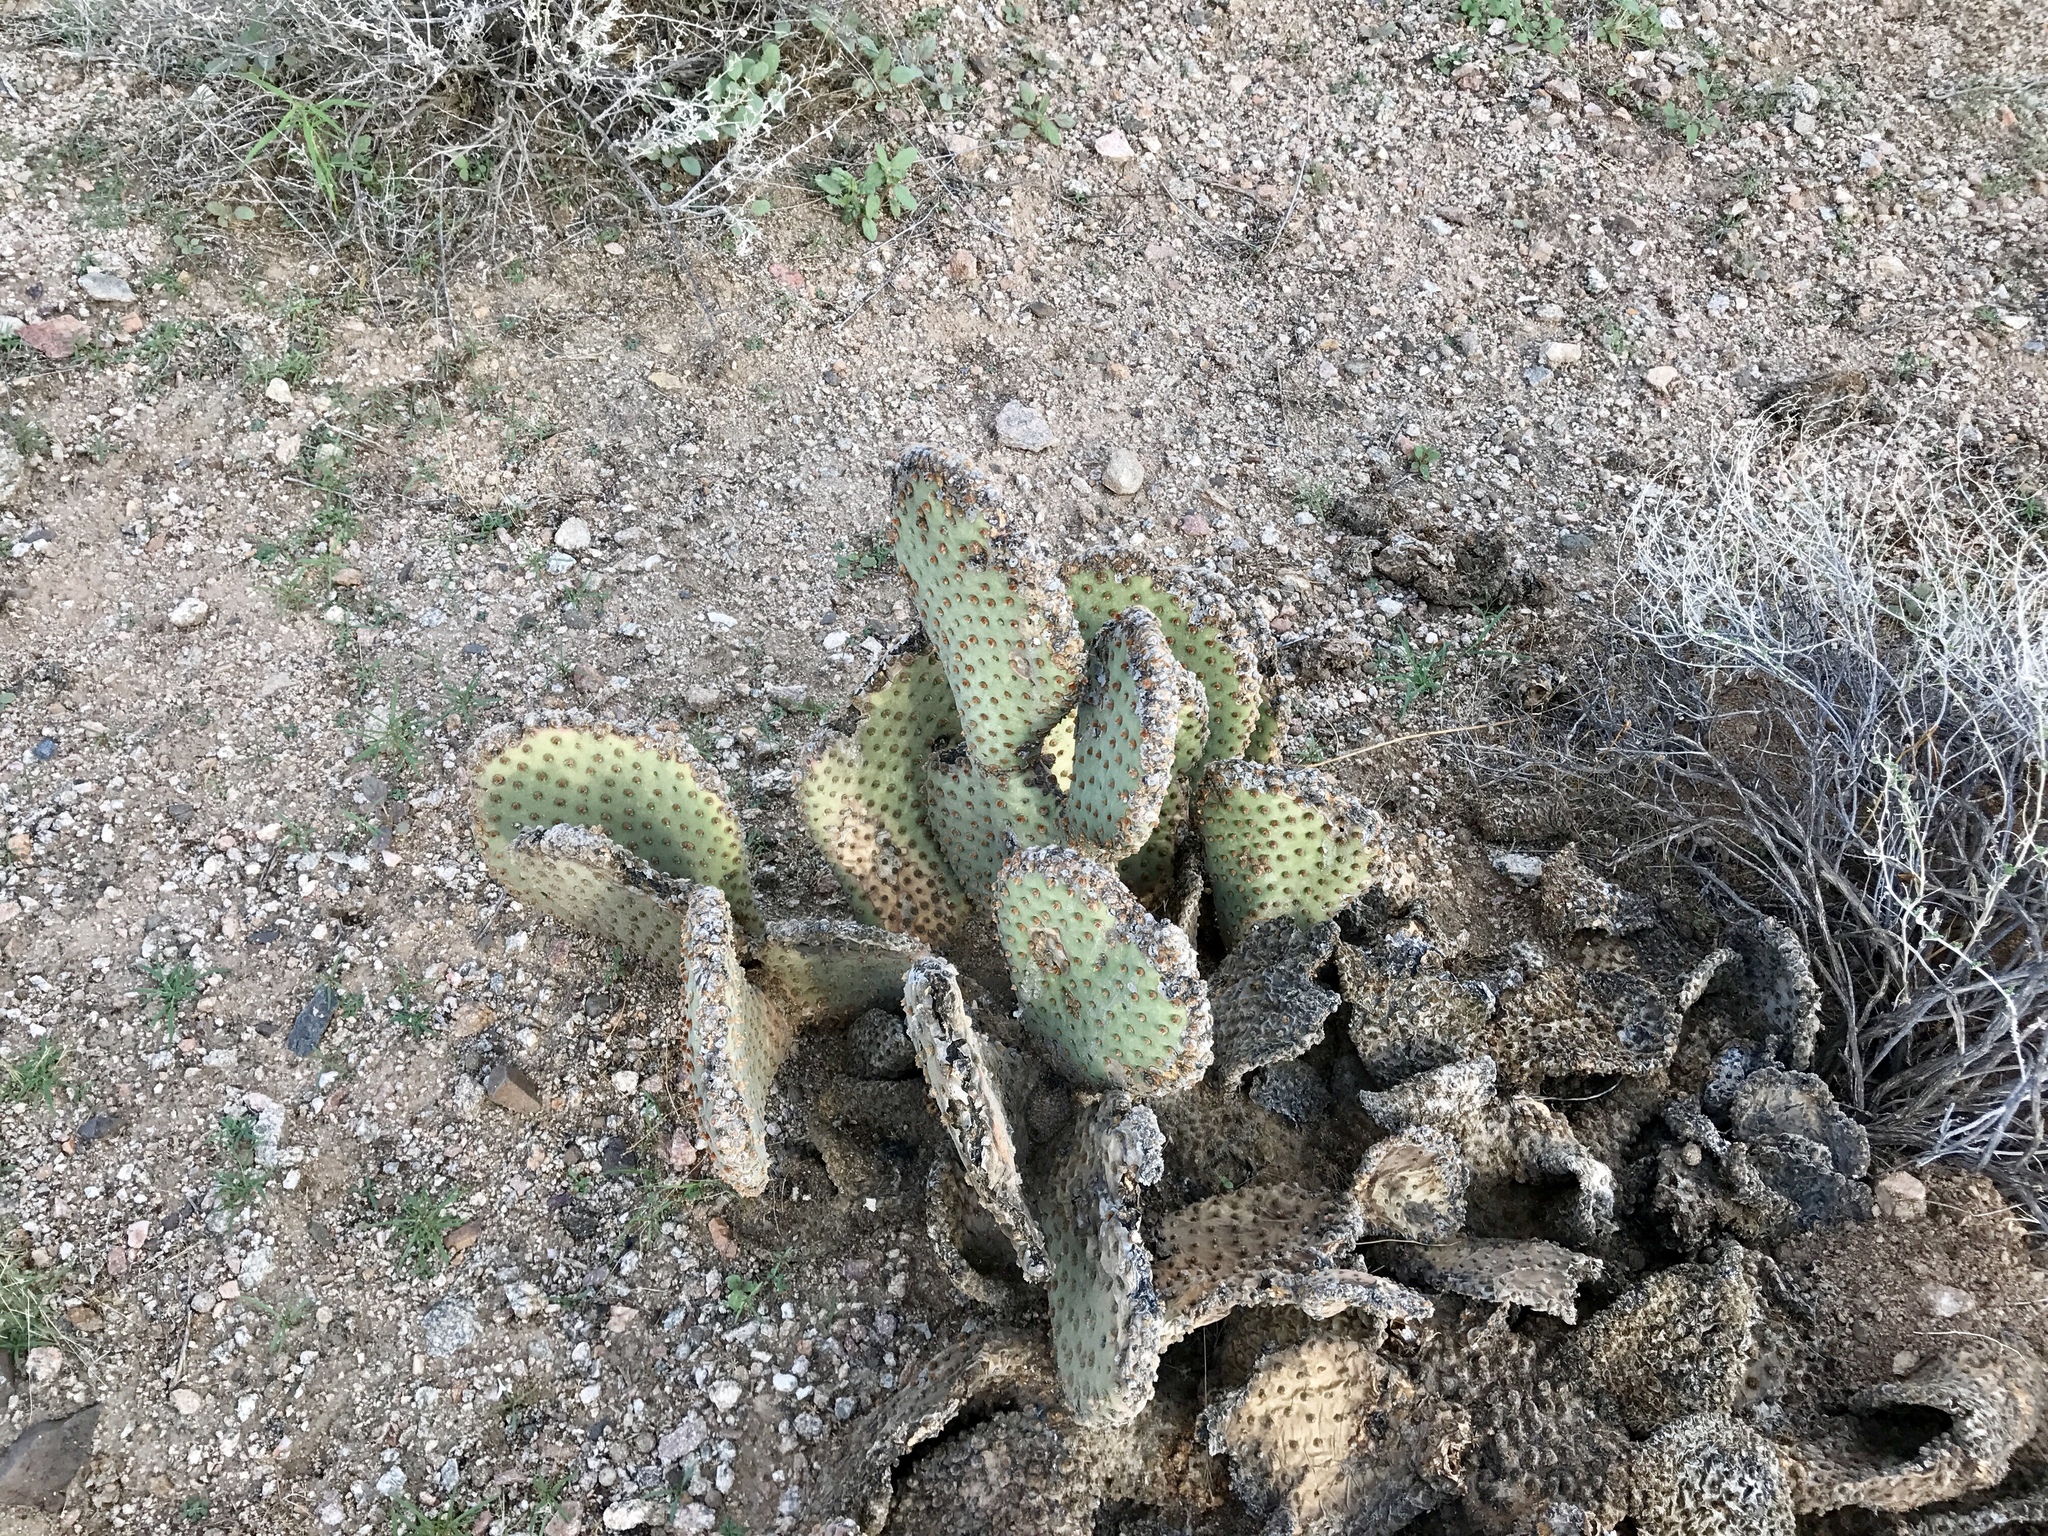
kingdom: Plantae
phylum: Tracheophyta
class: Magnoliopsida
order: Caryophyllales
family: Cactaceae
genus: Opuntia
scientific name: Opuntia basilaris
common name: Beavertail prickly-pear
